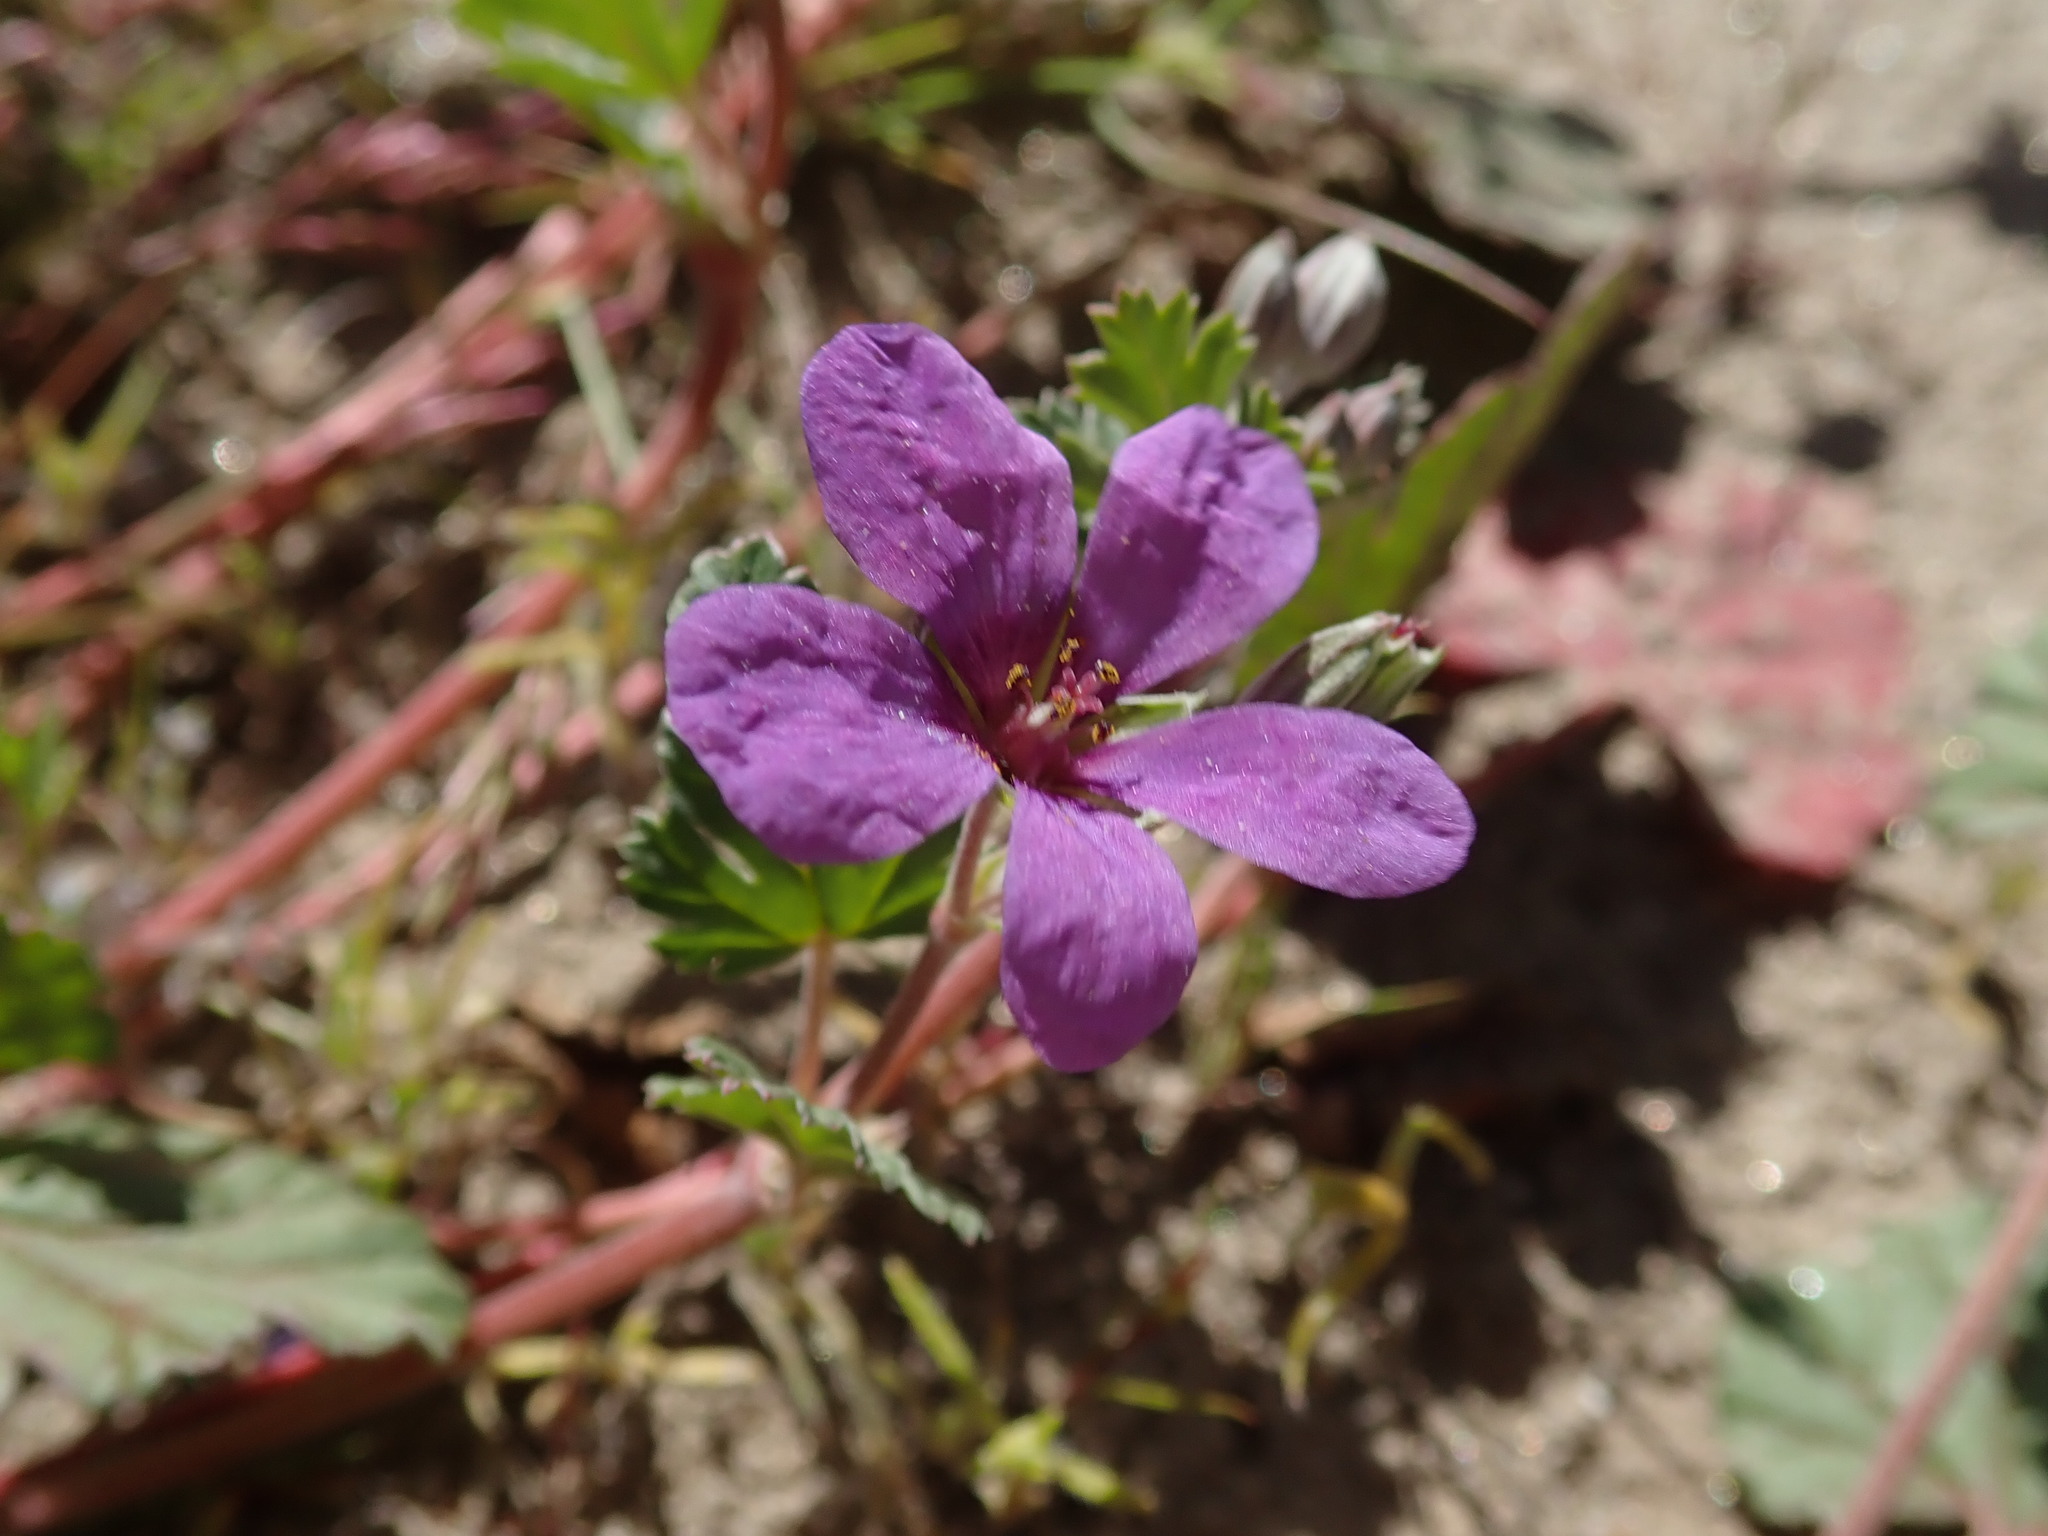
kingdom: Plantae
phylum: Tracheophyta
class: Magnoliopsida
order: Geraniales
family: Geraniaceae
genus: Erodium
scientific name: Erodium texanum
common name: Texas stork's-bill
